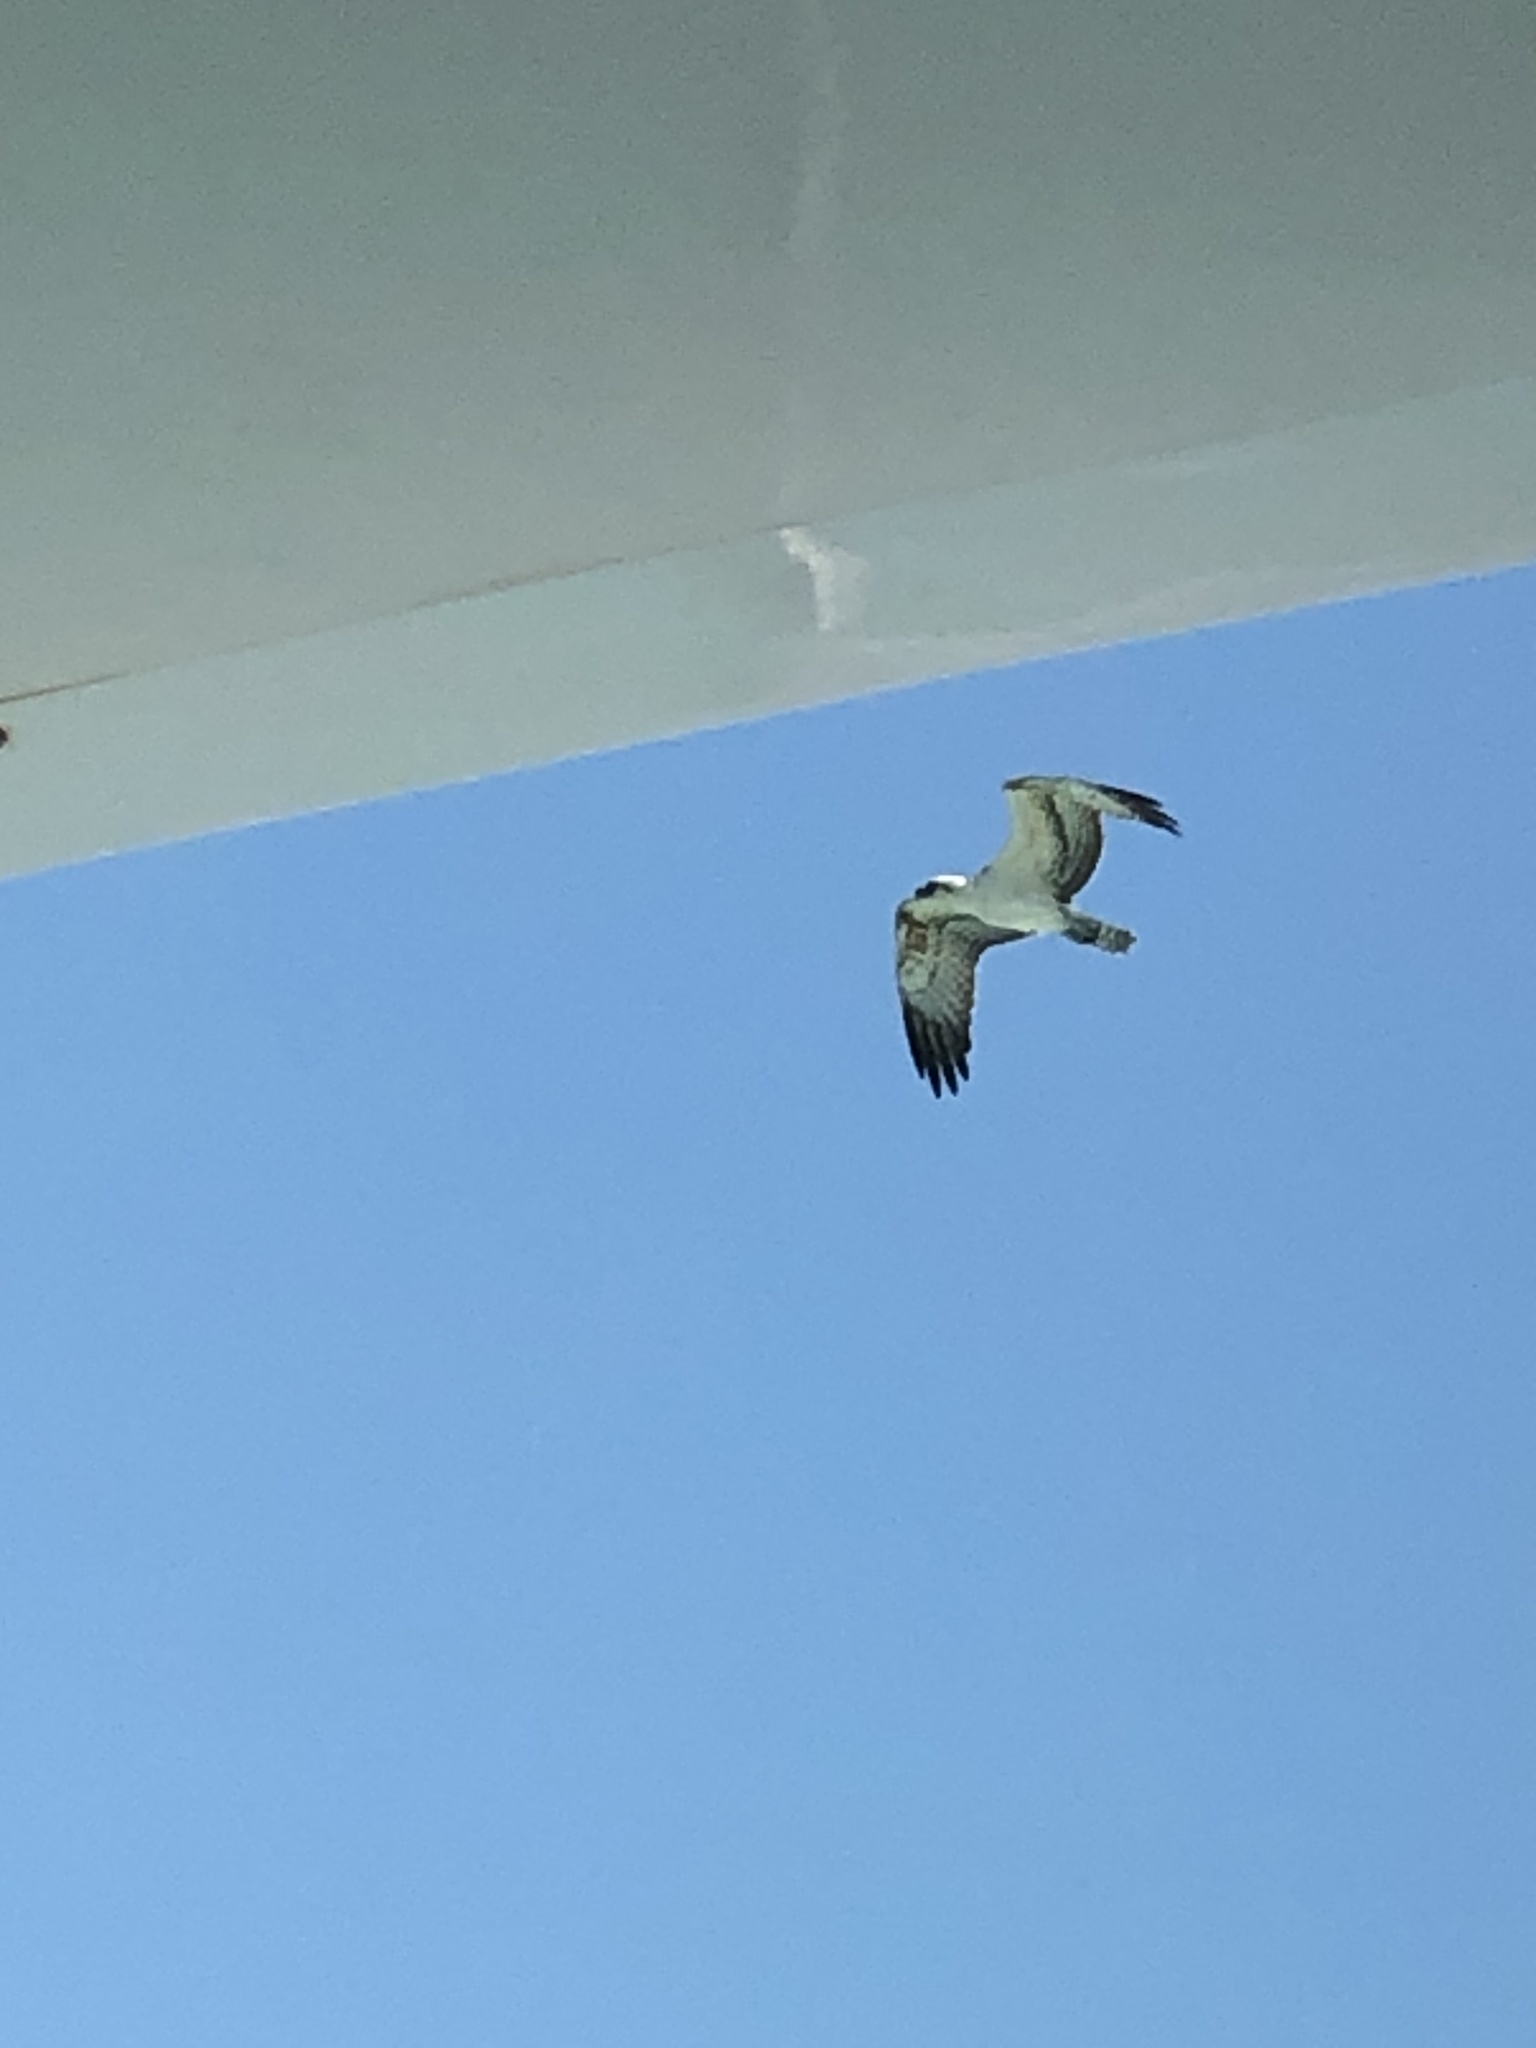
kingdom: Animalia
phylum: Chordata
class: Aves
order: Accipitriformes
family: Pandionidae
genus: Pandion
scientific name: Pandion haliaetus
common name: Osprey
